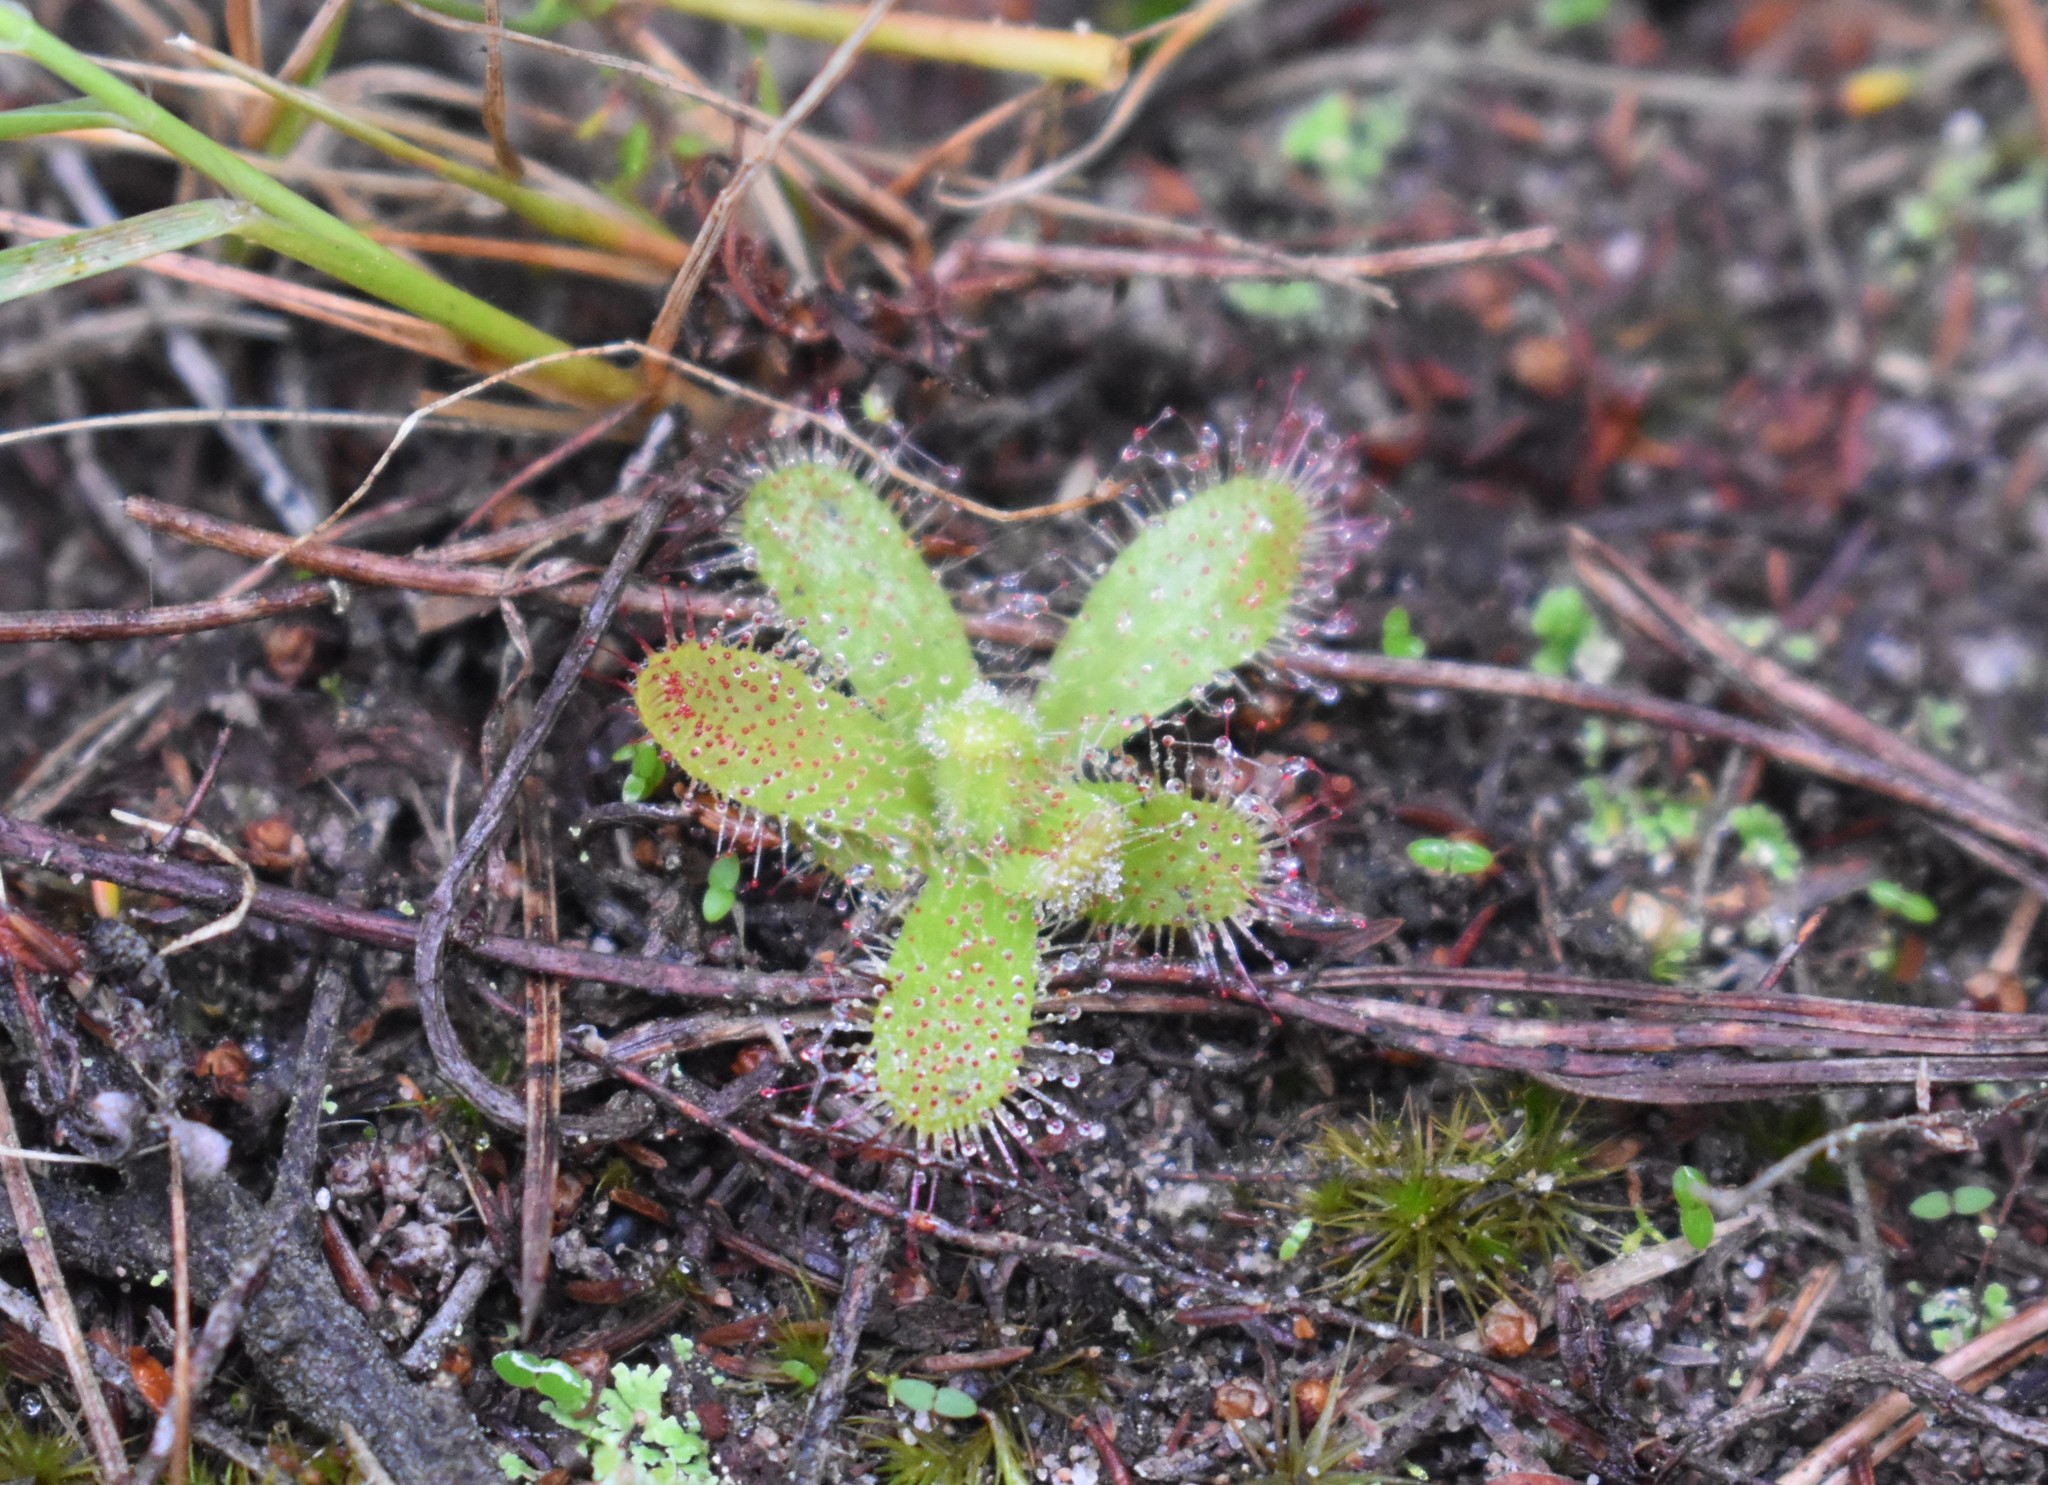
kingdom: Plantae
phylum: Tracheophyta
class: Magnoliopsida
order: Caryophyllales
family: Droseraceae
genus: Drosera
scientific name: Drosera cistiflora
